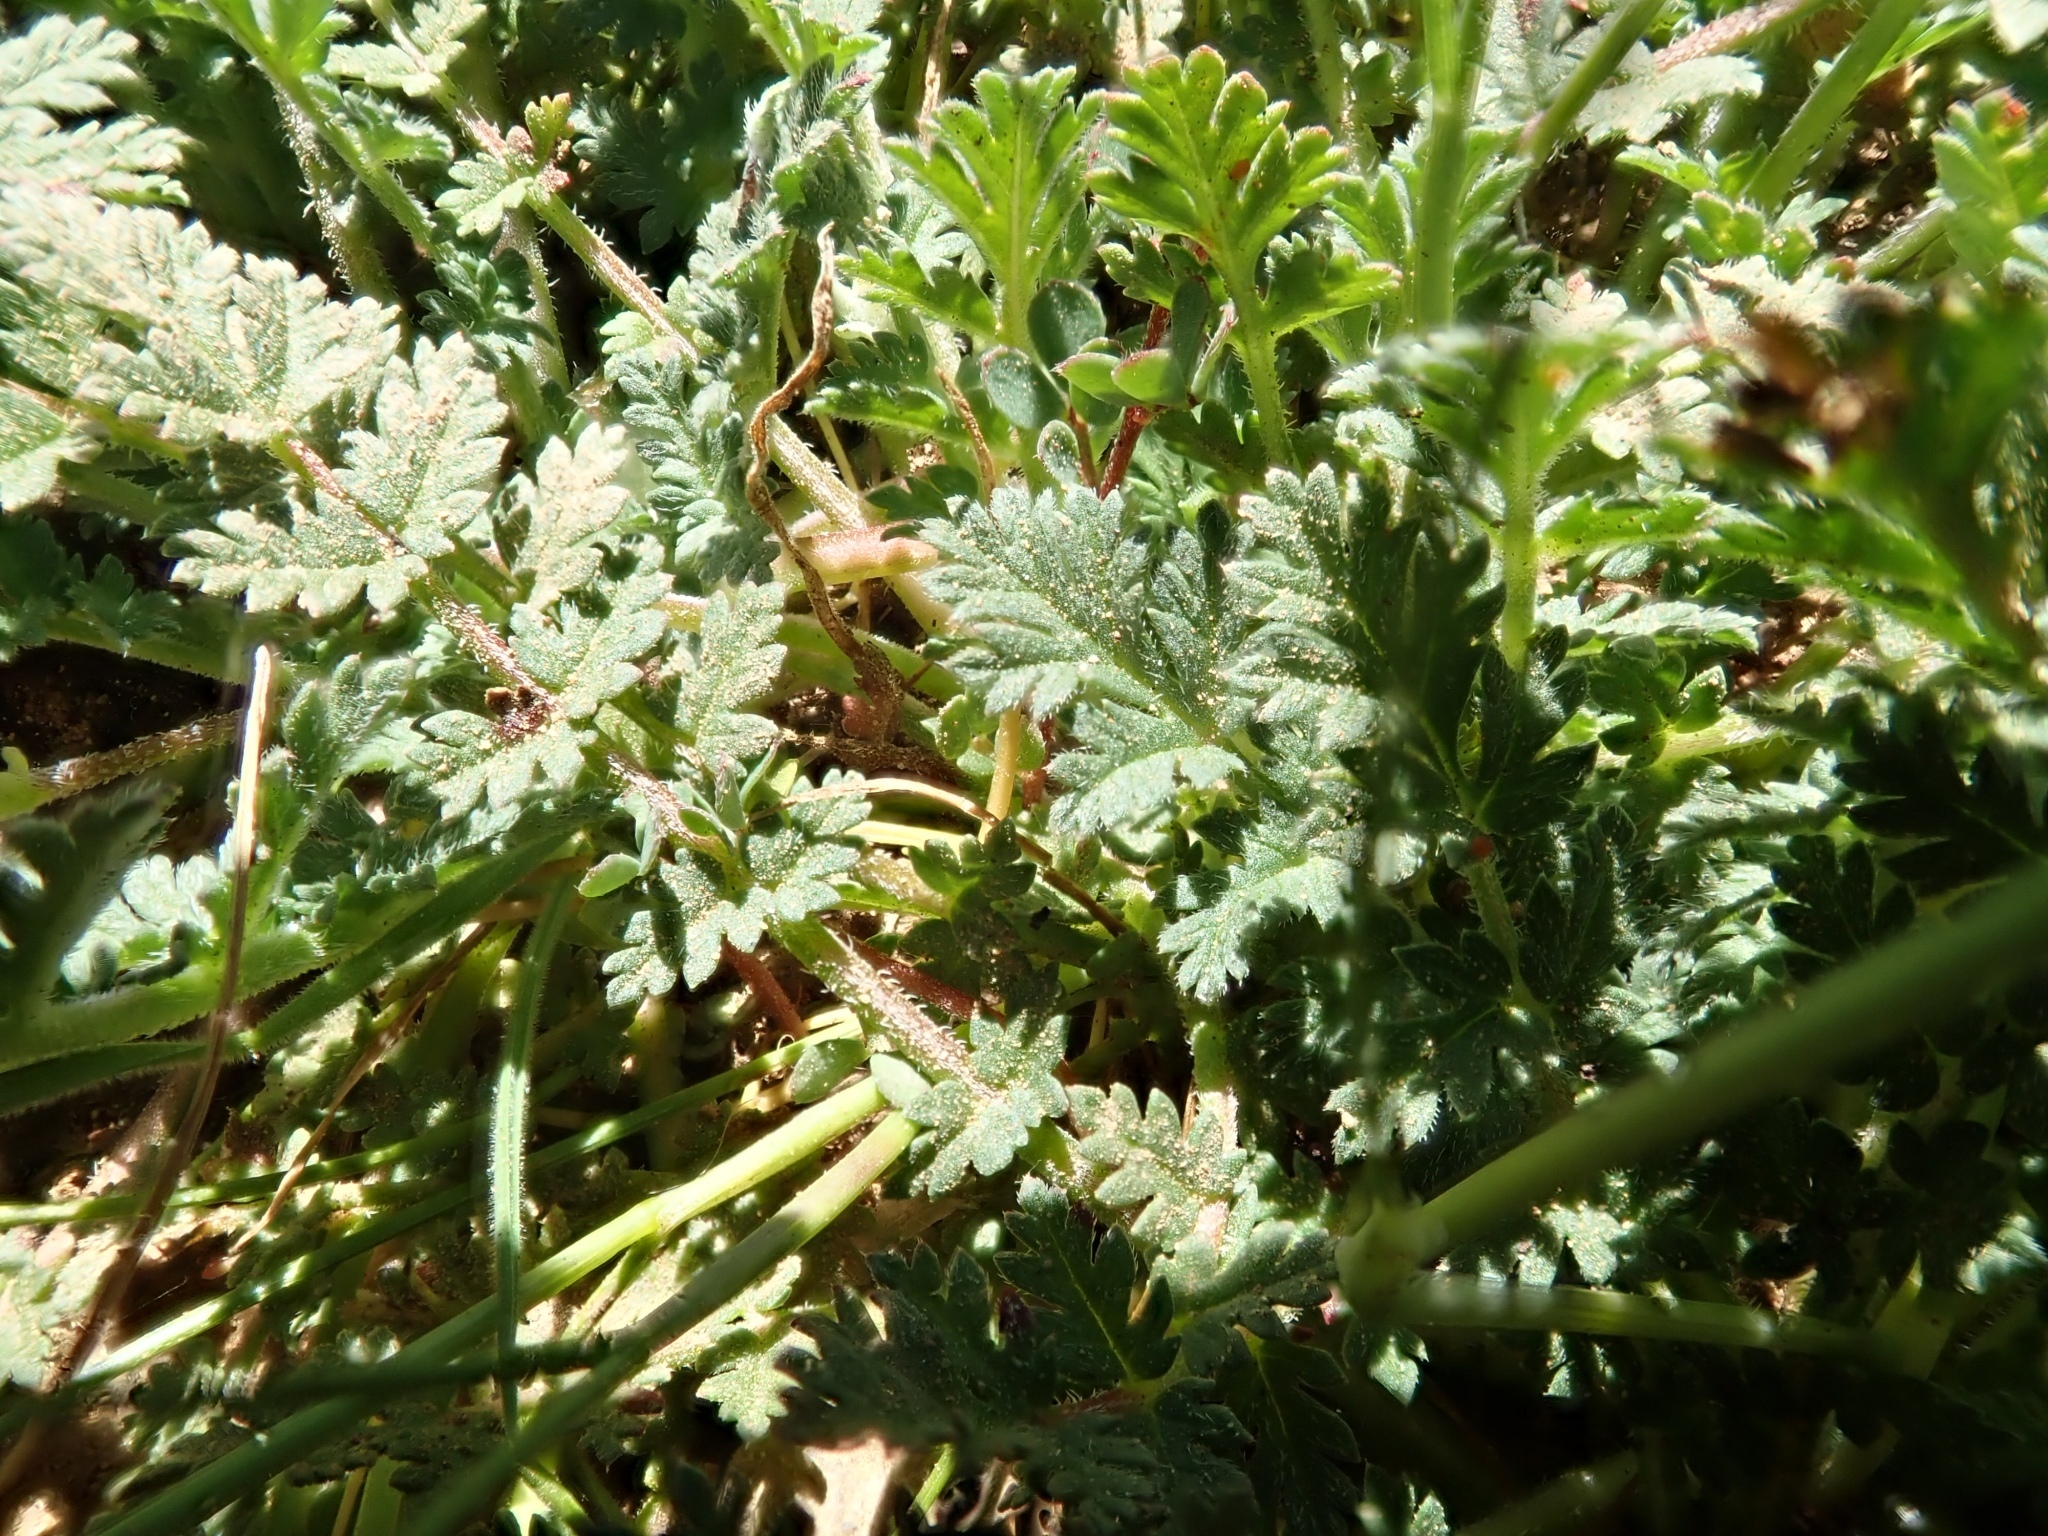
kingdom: Plantae
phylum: Tracheophyta
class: Magnoliopsida
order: Geraniales
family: Geraniaceae
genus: Erodium
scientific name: Erodium cicutarium
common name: Common stork's-bill
